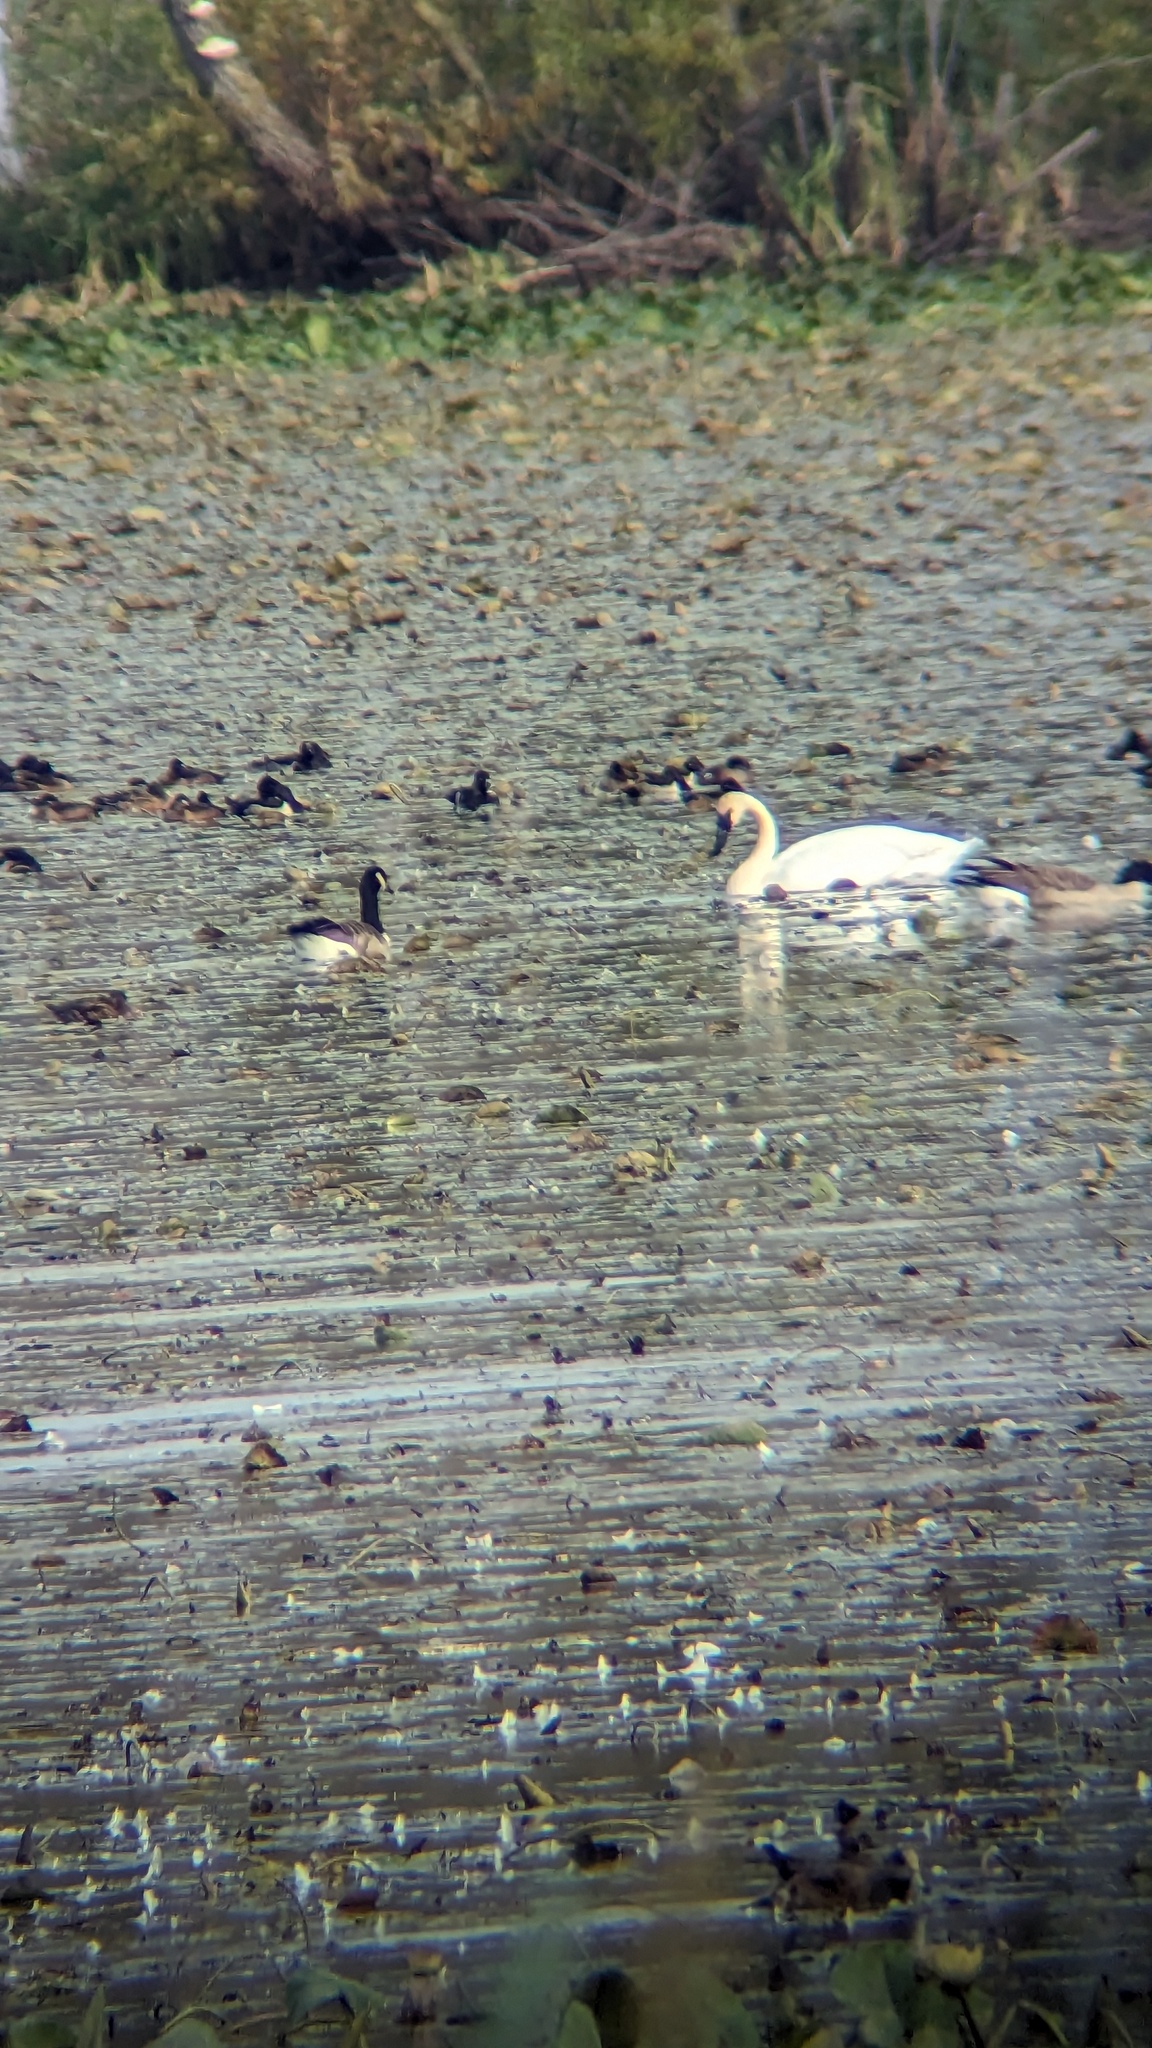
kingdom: Animalia
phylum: Chordata
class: Aves
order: Anseriformes
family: Anatidae
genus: Branta
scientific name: Branta canadensis
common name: Canada goose
